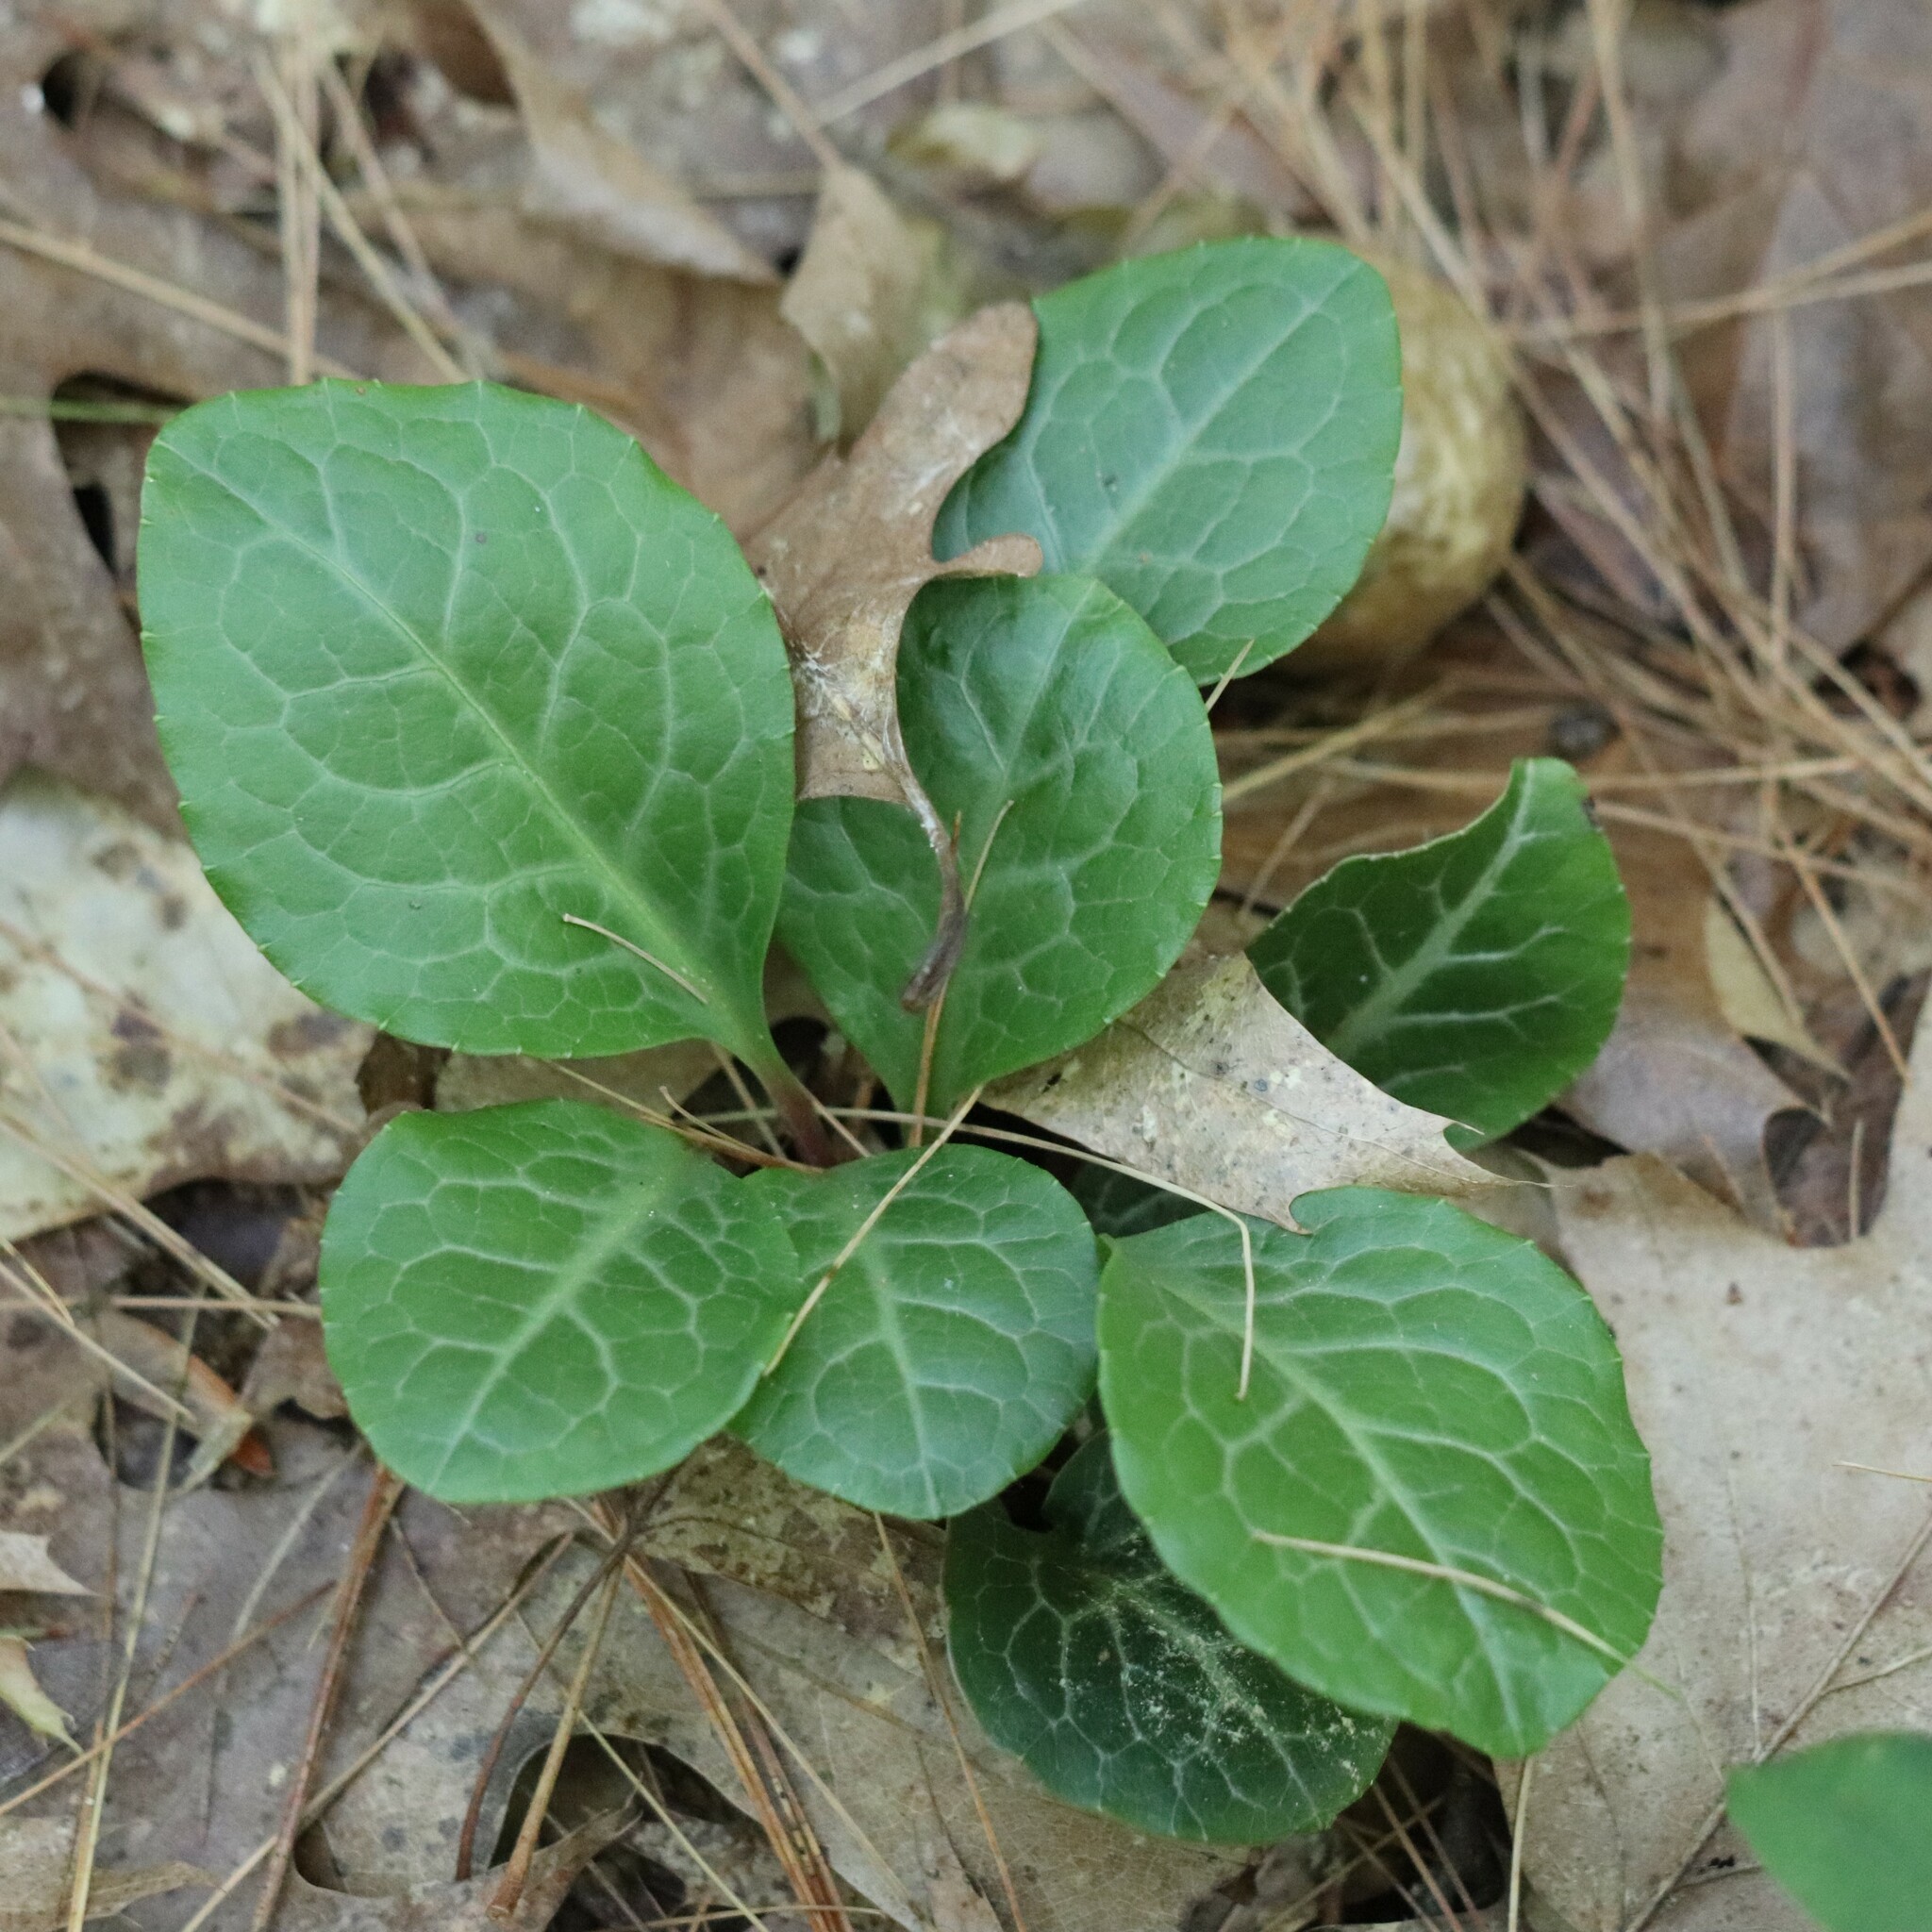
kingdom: Plantae
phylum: Tracheophyta
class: Magnoliopsida
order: Ericales
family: Ericaceae
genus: Pyrola
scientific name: Pyrola americana
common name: American wintergreen
